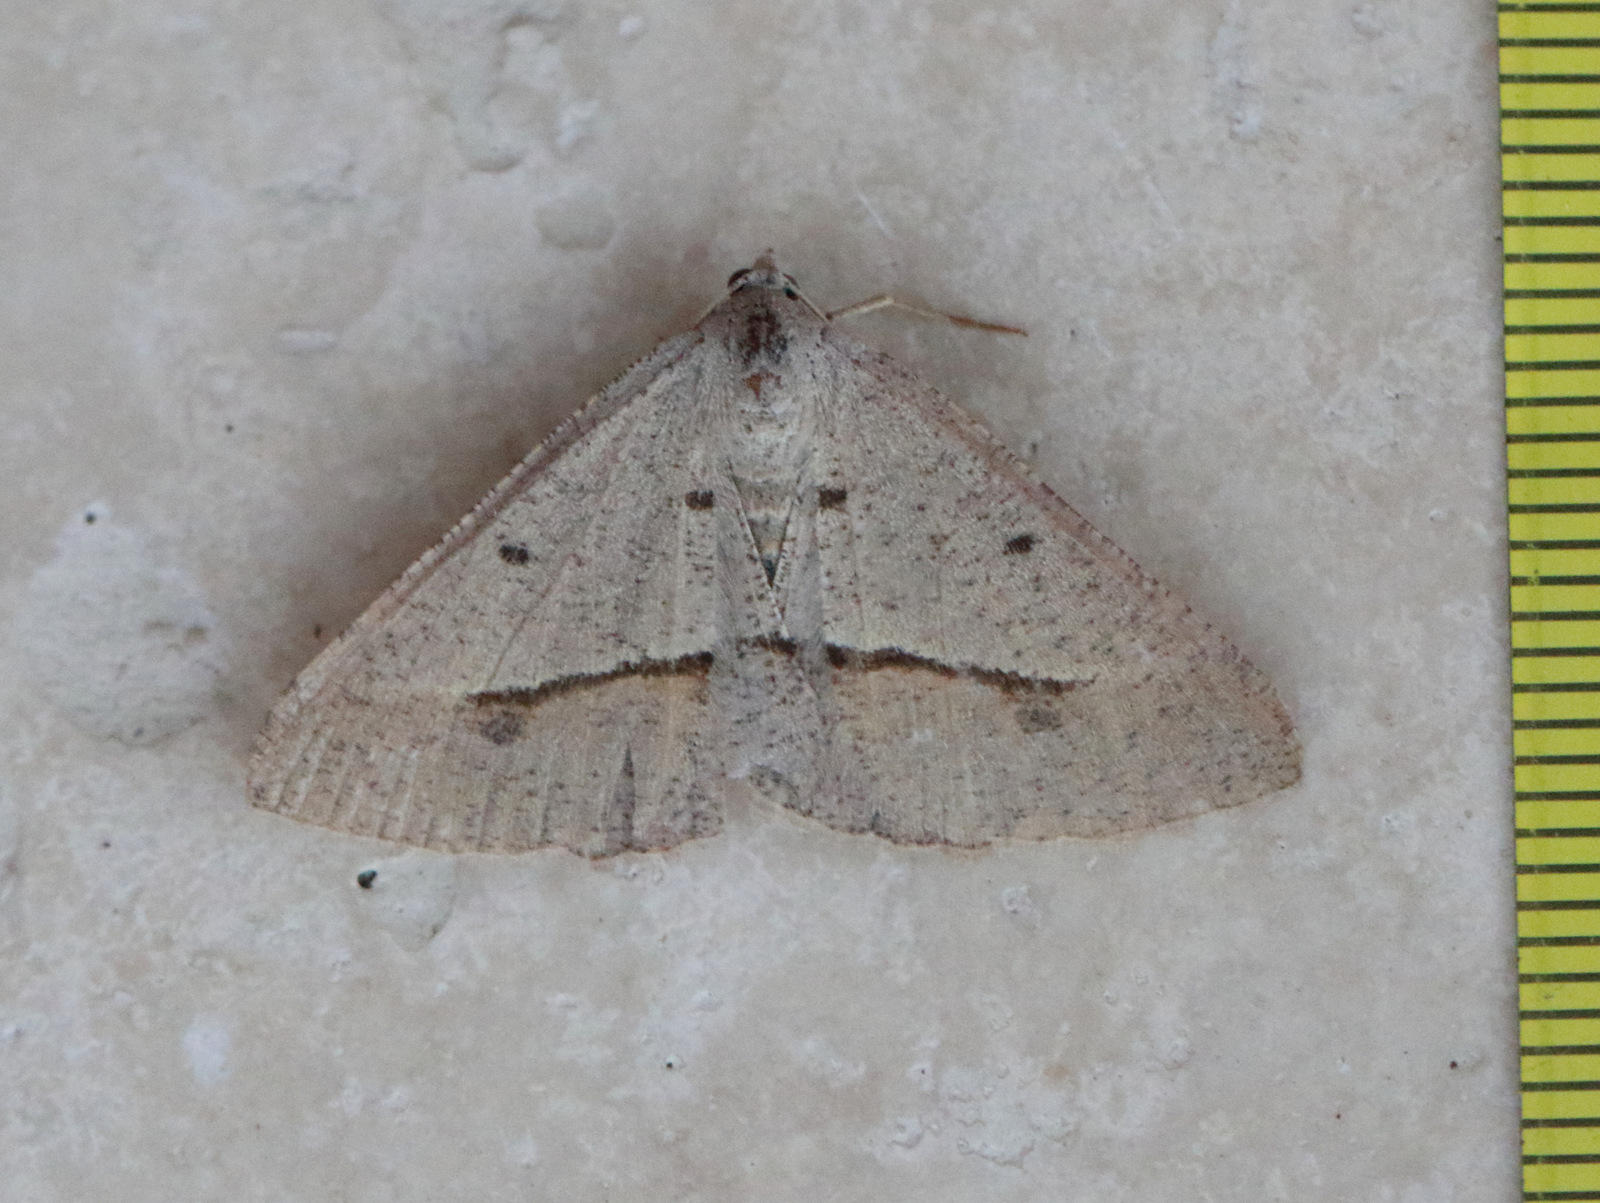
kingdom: Animalia
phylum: Arthropoda
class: Insecta
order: Lepidoptera
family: Geometridae
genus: Isturgia
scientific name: Isturgia
